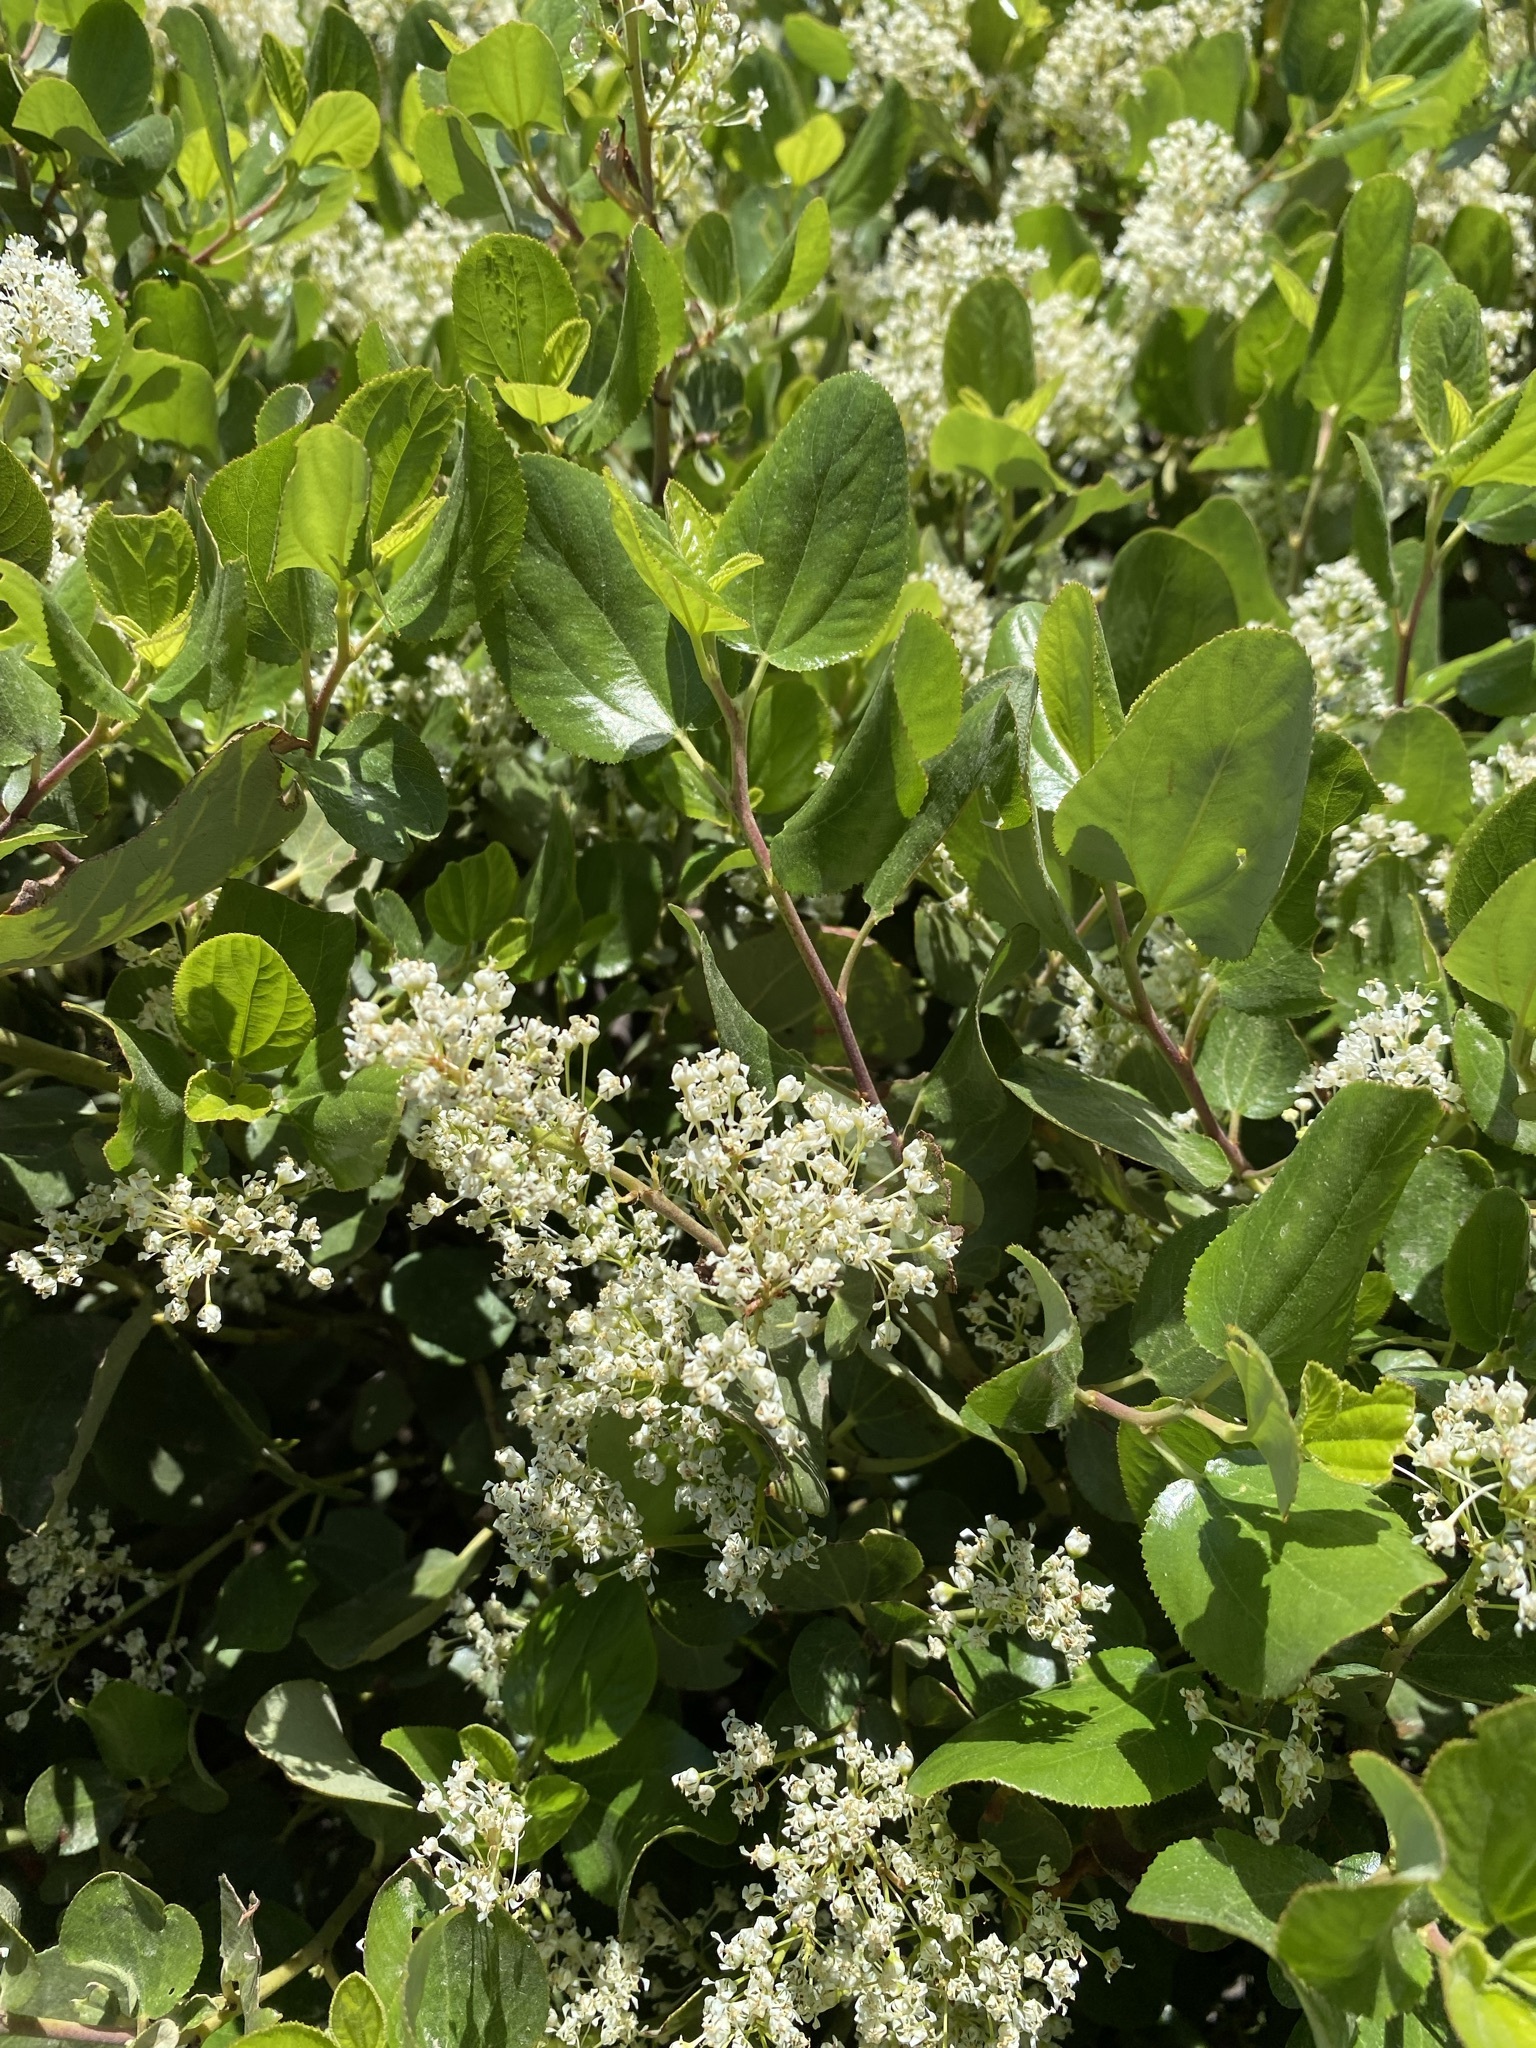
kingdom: Plantae
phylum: Tracheophyta
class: Magnoliopsida
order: Rosales
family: Rhamnaceae
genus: Ceanothus
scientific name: Ceanothus velutinus
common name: Snowbrush
